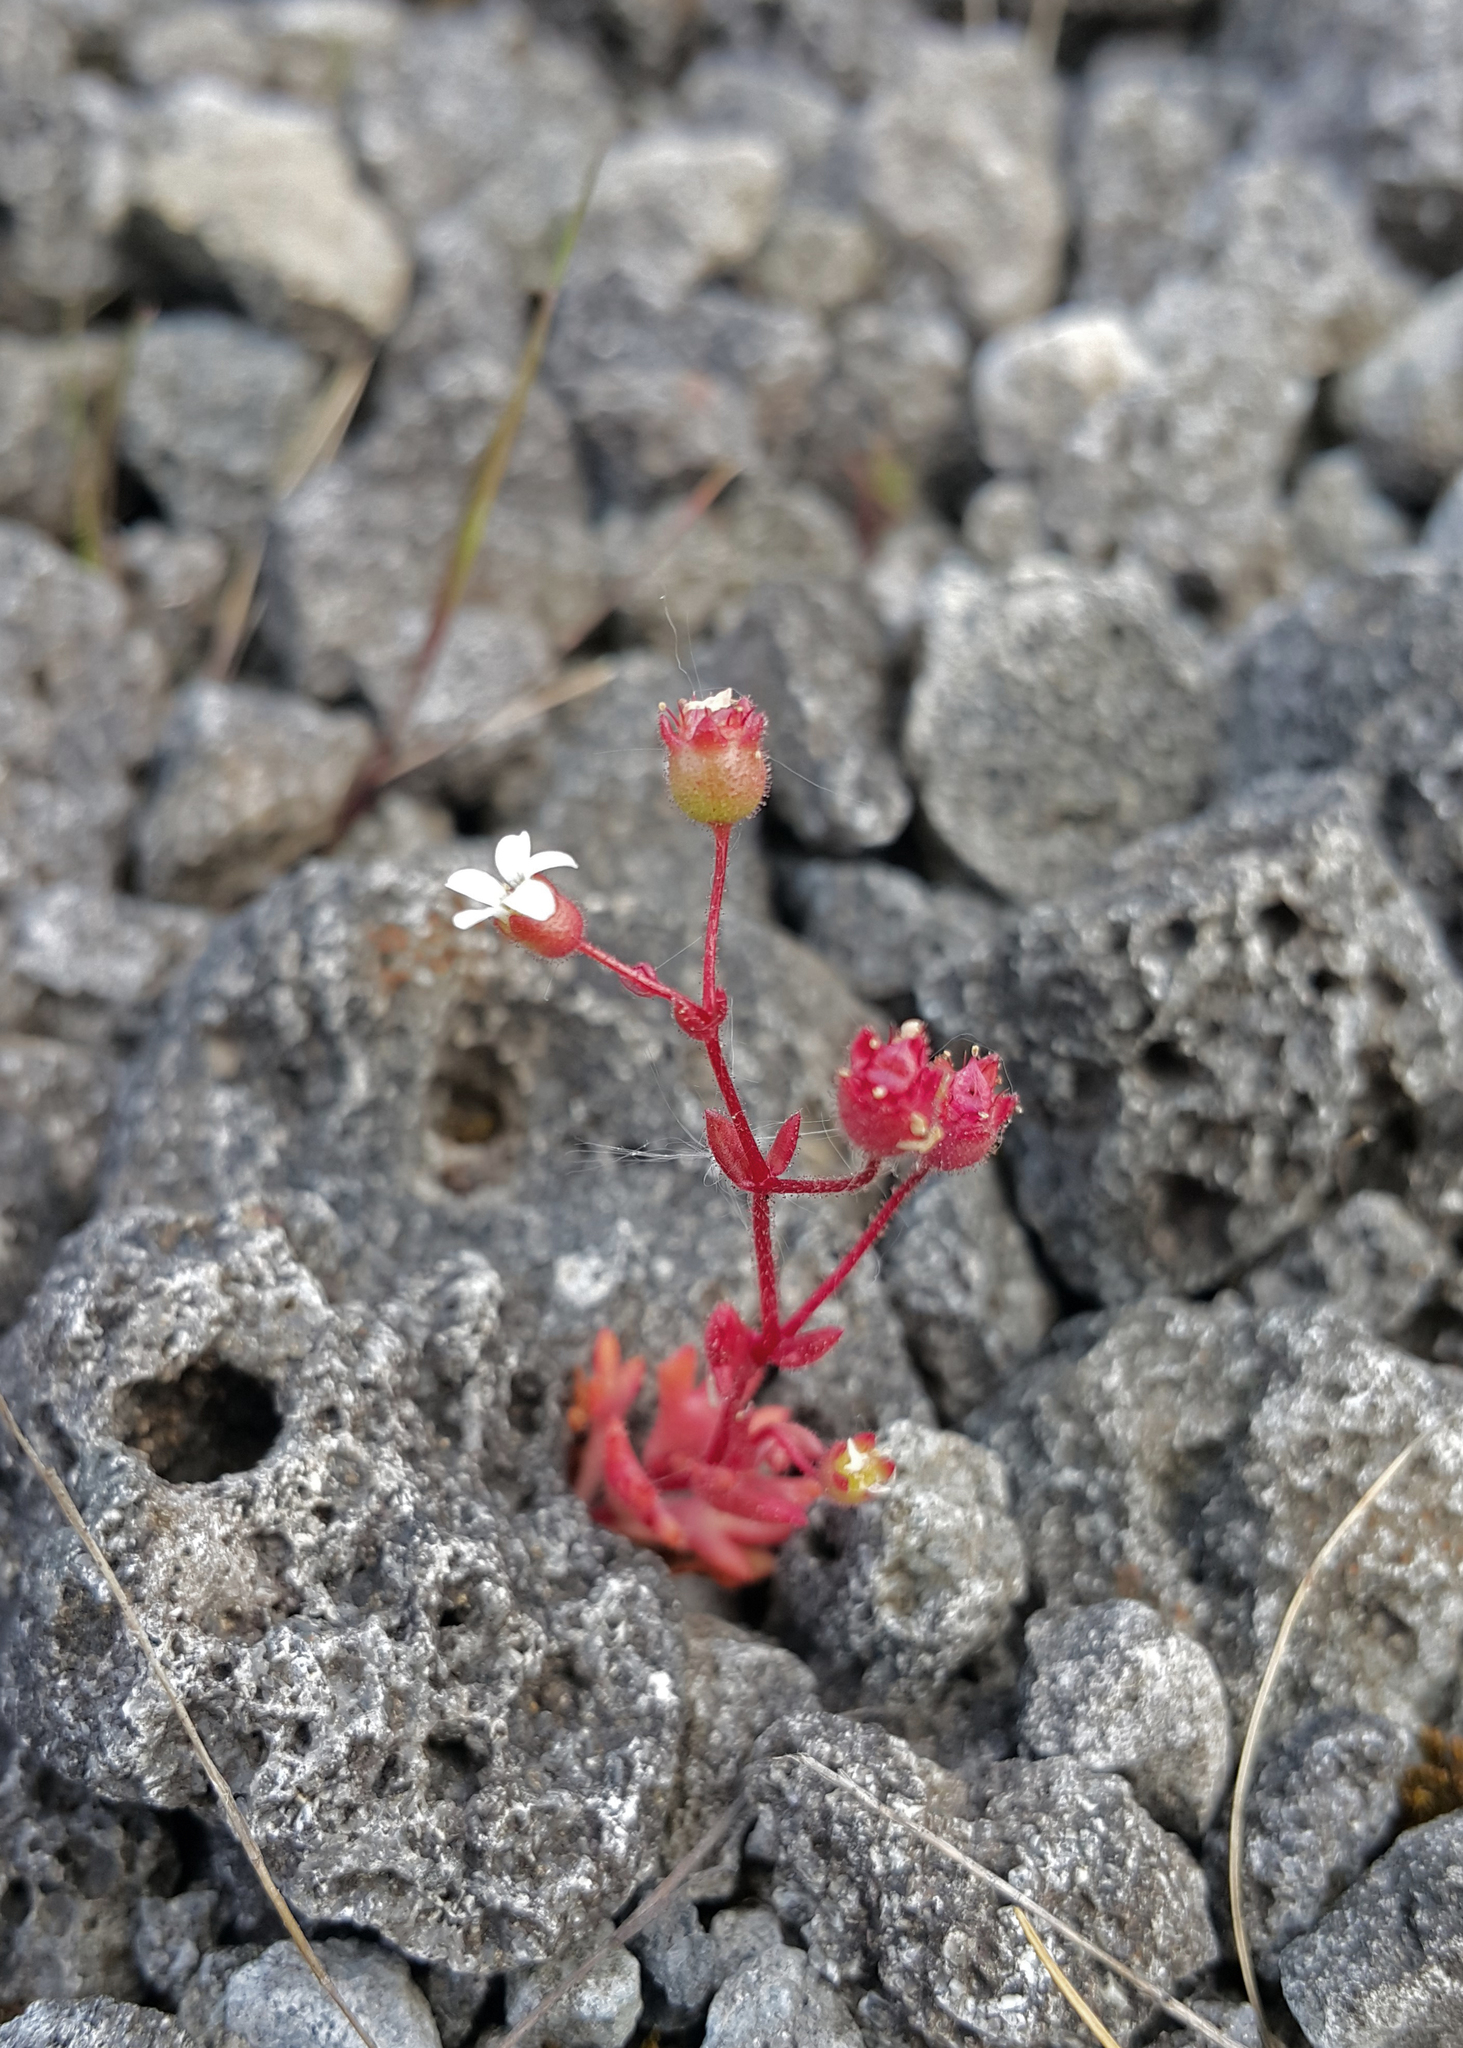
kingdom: Plantae
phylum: Tracheophyta
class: Magnoliopsida
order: Saxifragales
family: Saxifragaceae
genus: Saxifraga
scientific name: Saxifraga tridactylites
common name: Rue-leaved saxifrage
